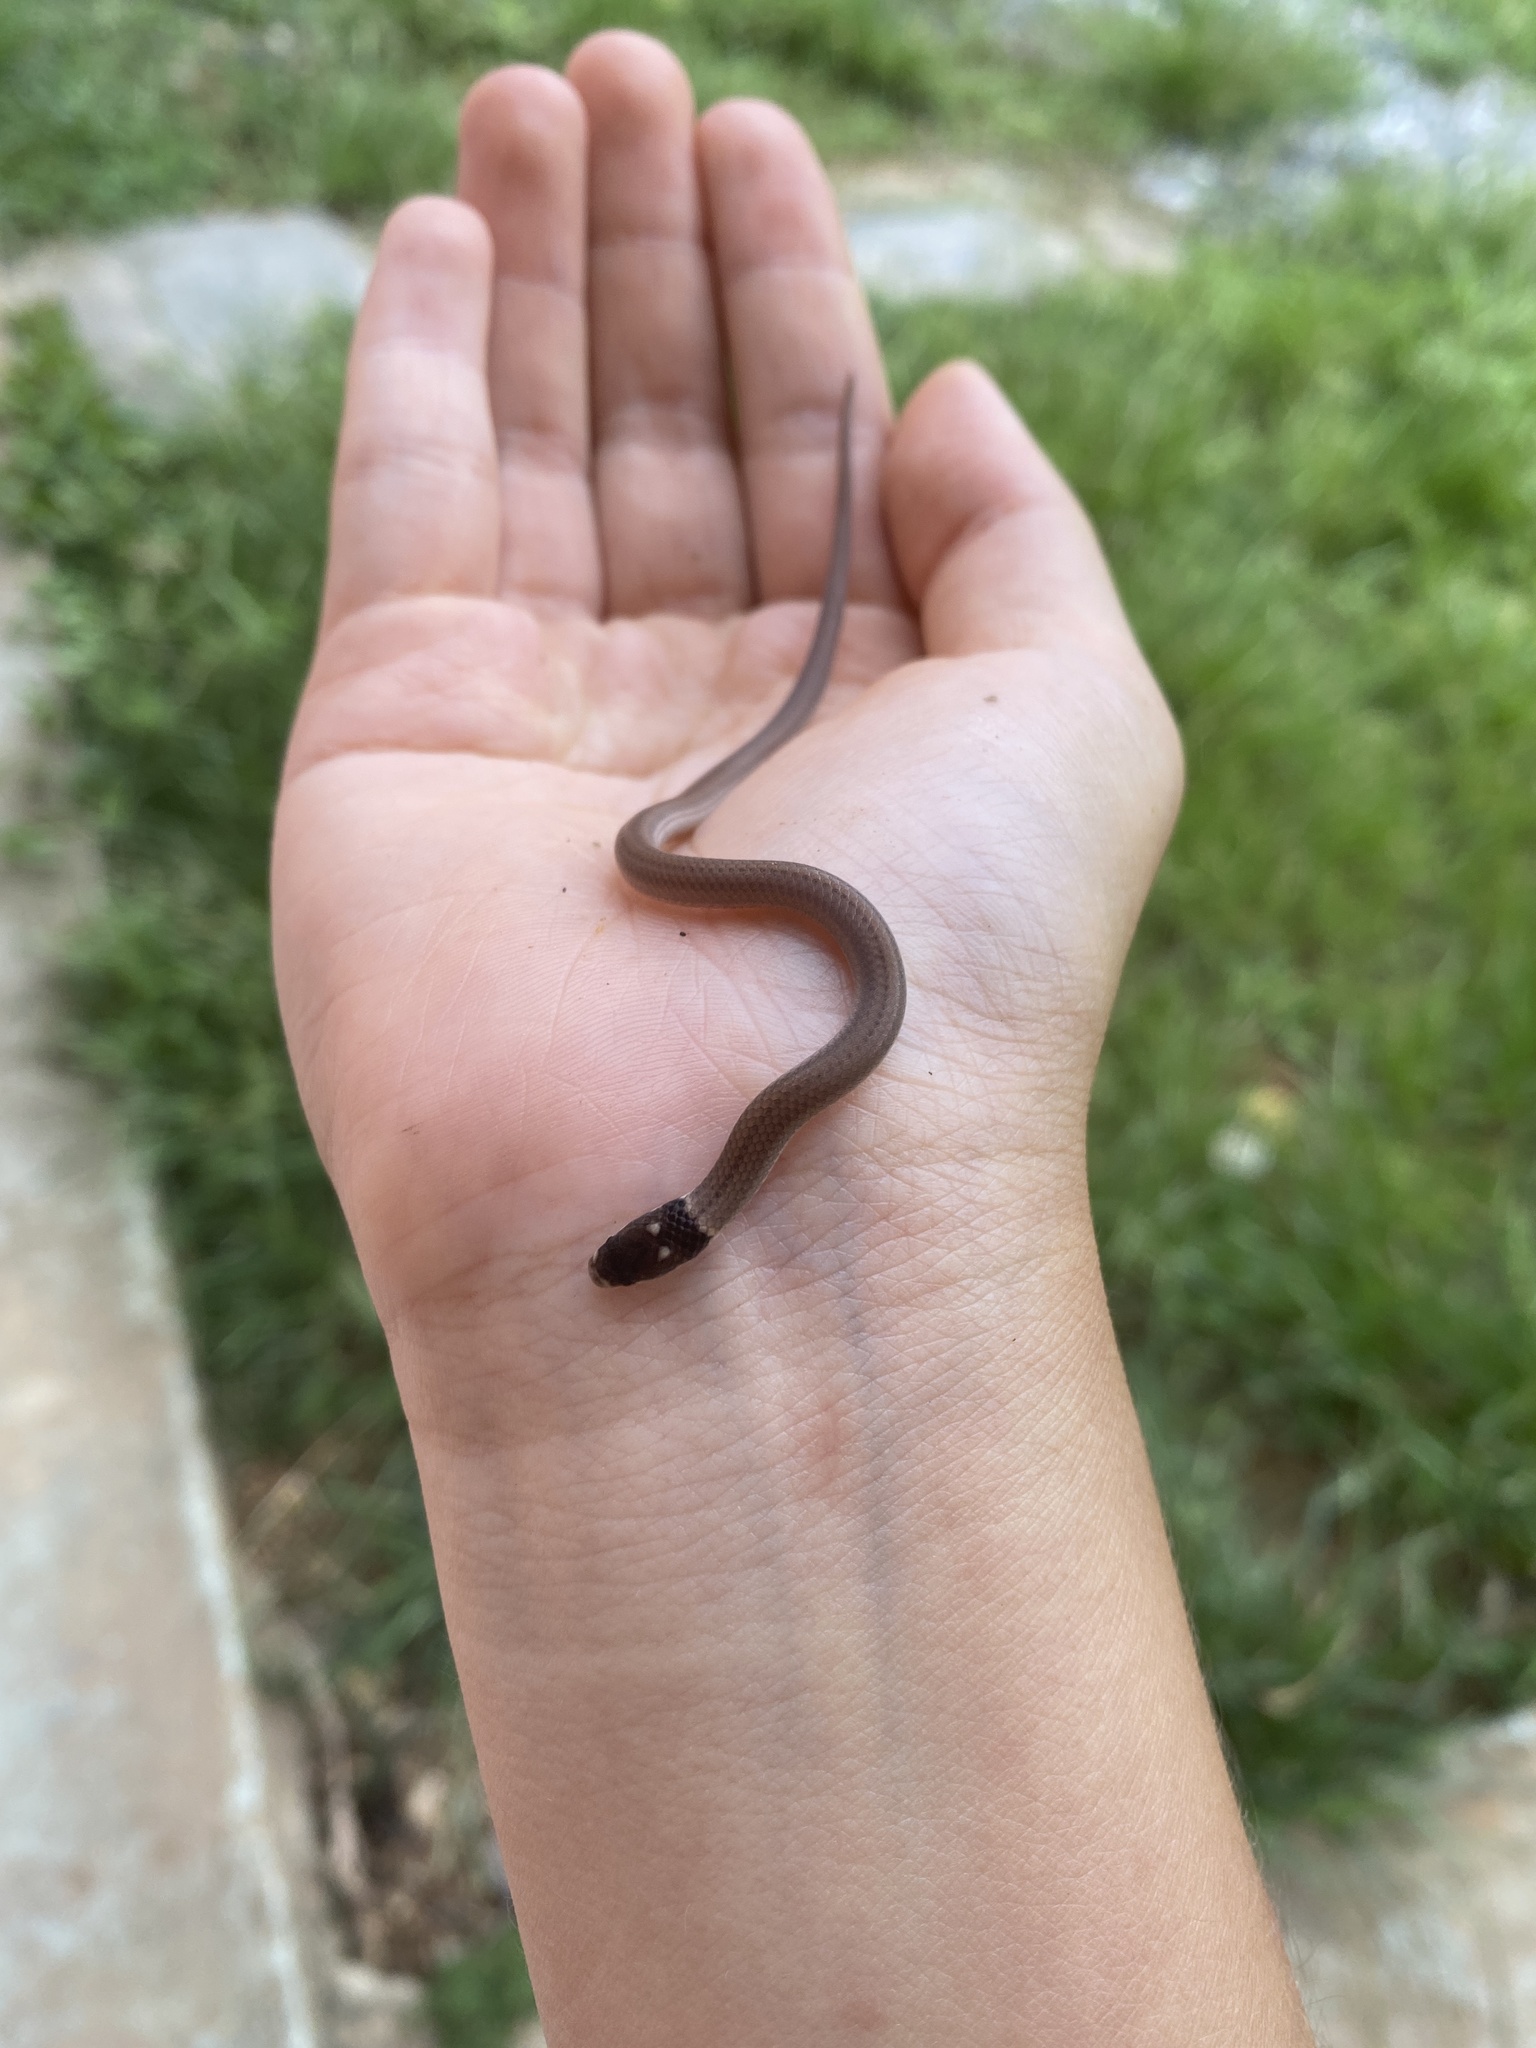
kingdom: Animalia
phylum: Chordata
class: Squamata
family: Colubridae
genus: Tantilla
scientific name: Tantilla melanocephala
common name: Black-headed snake
